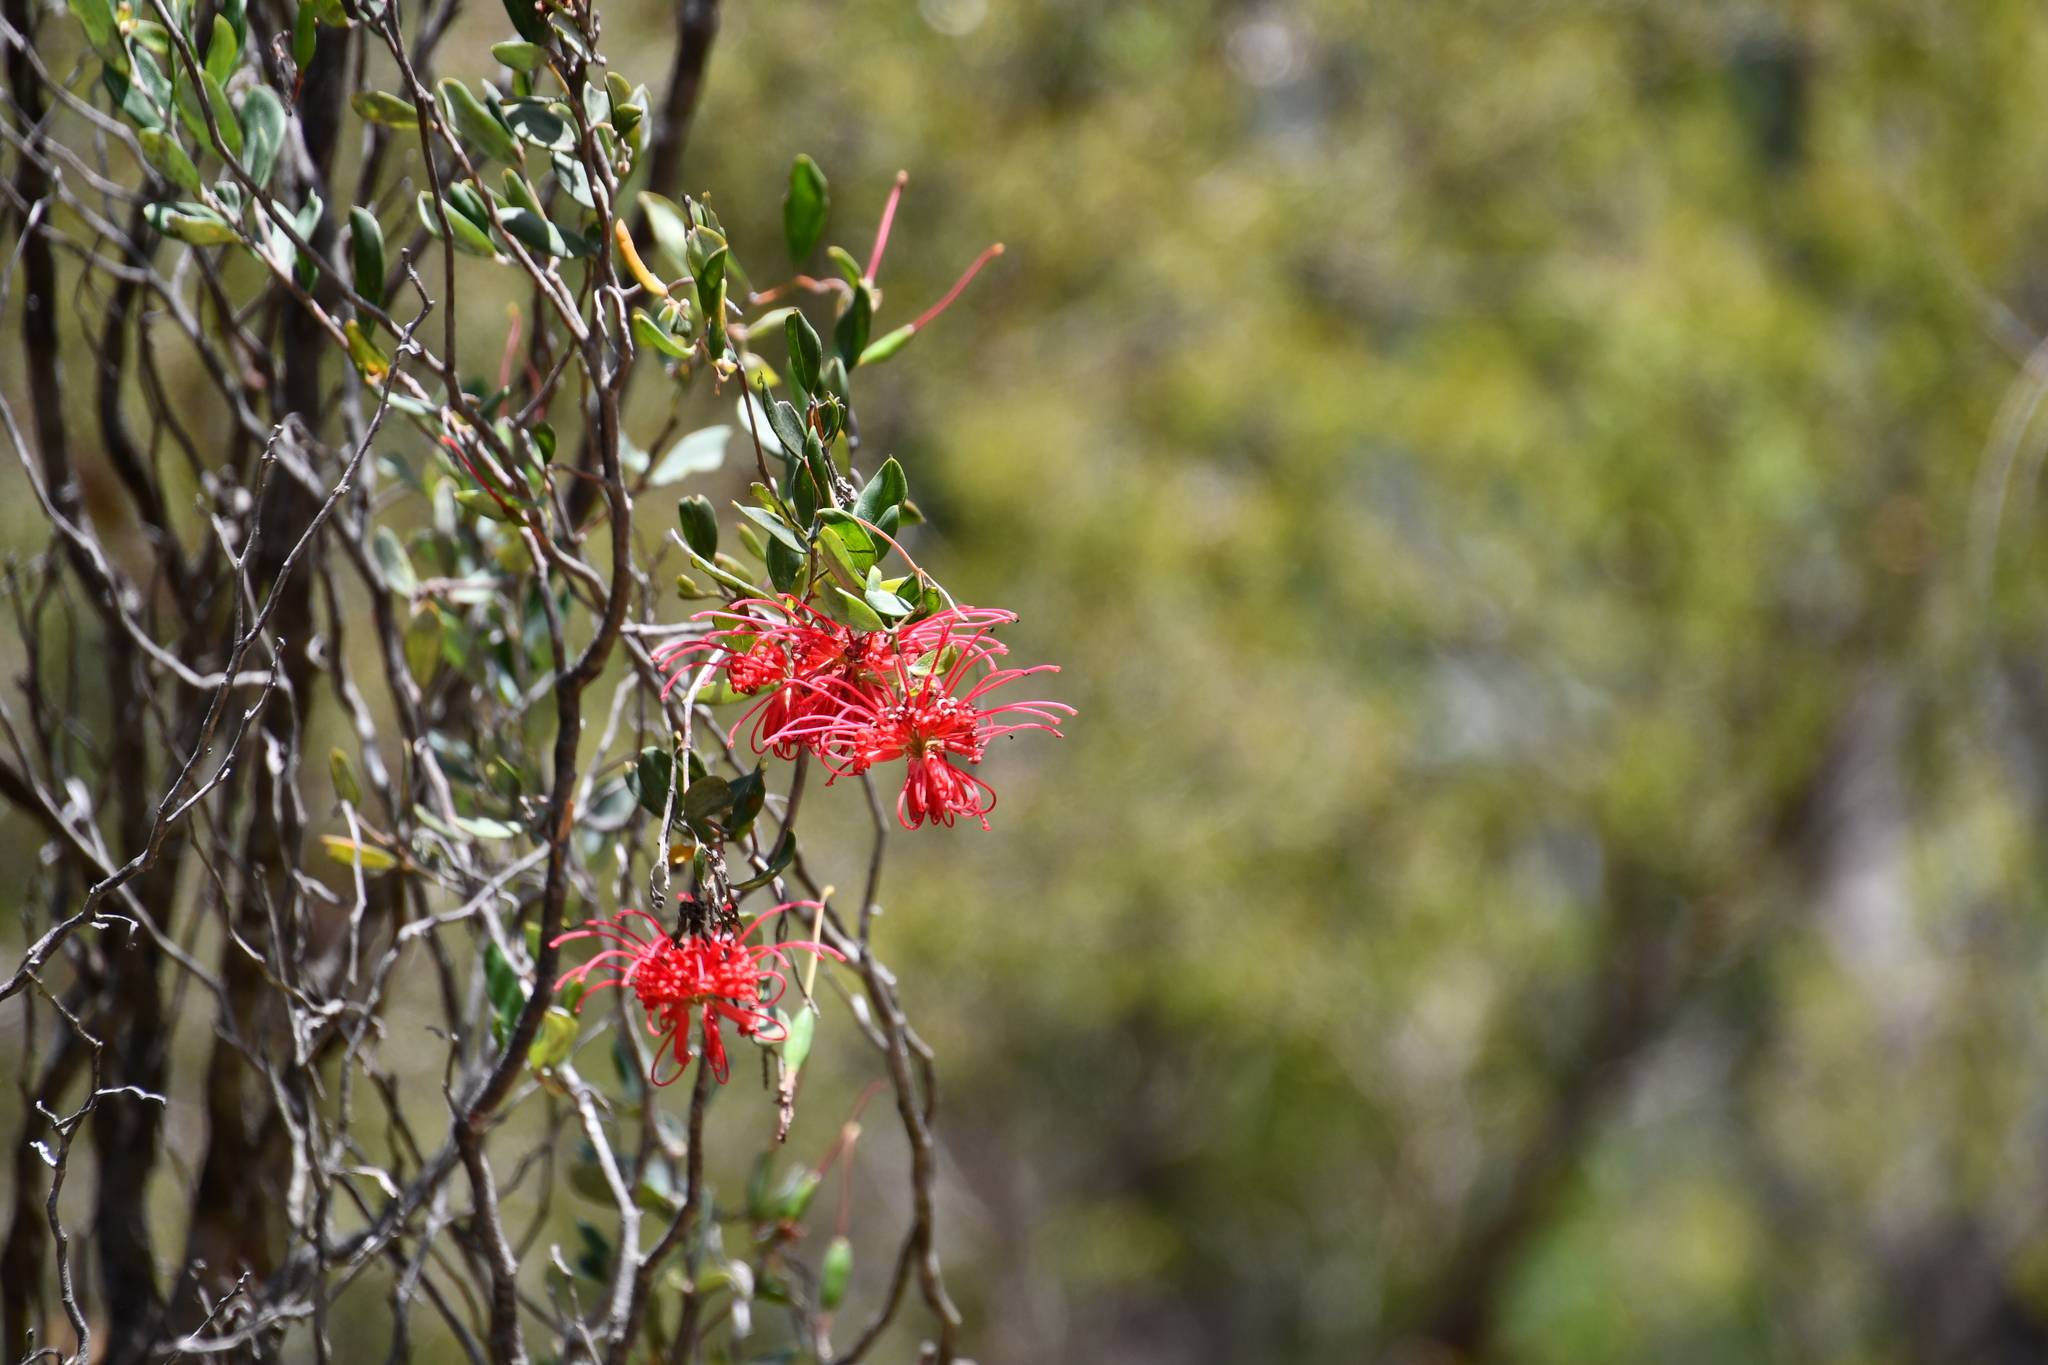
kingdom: Plantae
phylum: Tracheophyta
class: Magnoliopsida
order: Proteales
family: Proteaceae
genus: Grevillea
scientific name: Grevillea speciosa
